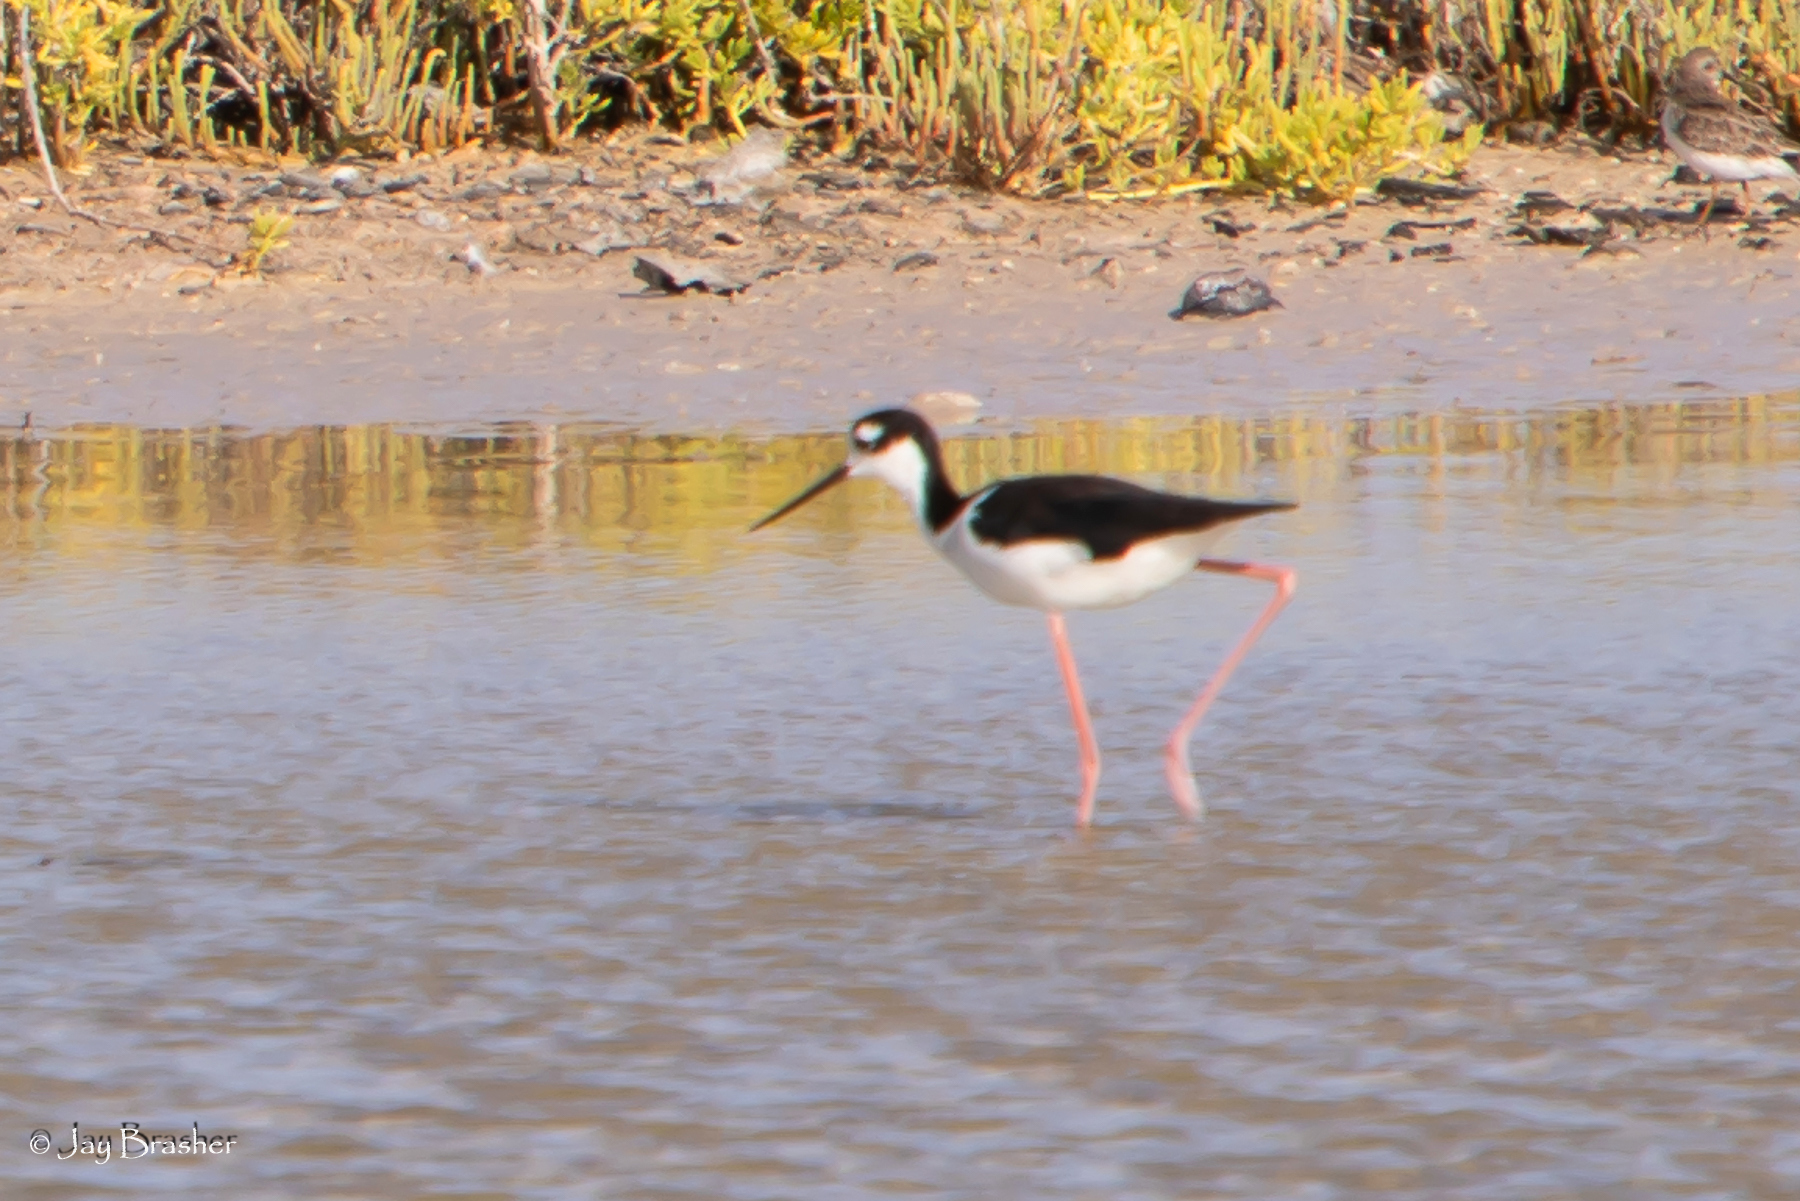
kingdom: Animalia
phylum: Chordata
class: Aves
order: Charadriiformes
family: Recurvirostridae
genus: Himantopus
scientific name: Himantopus mexicanus
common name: Black-necked stilt
